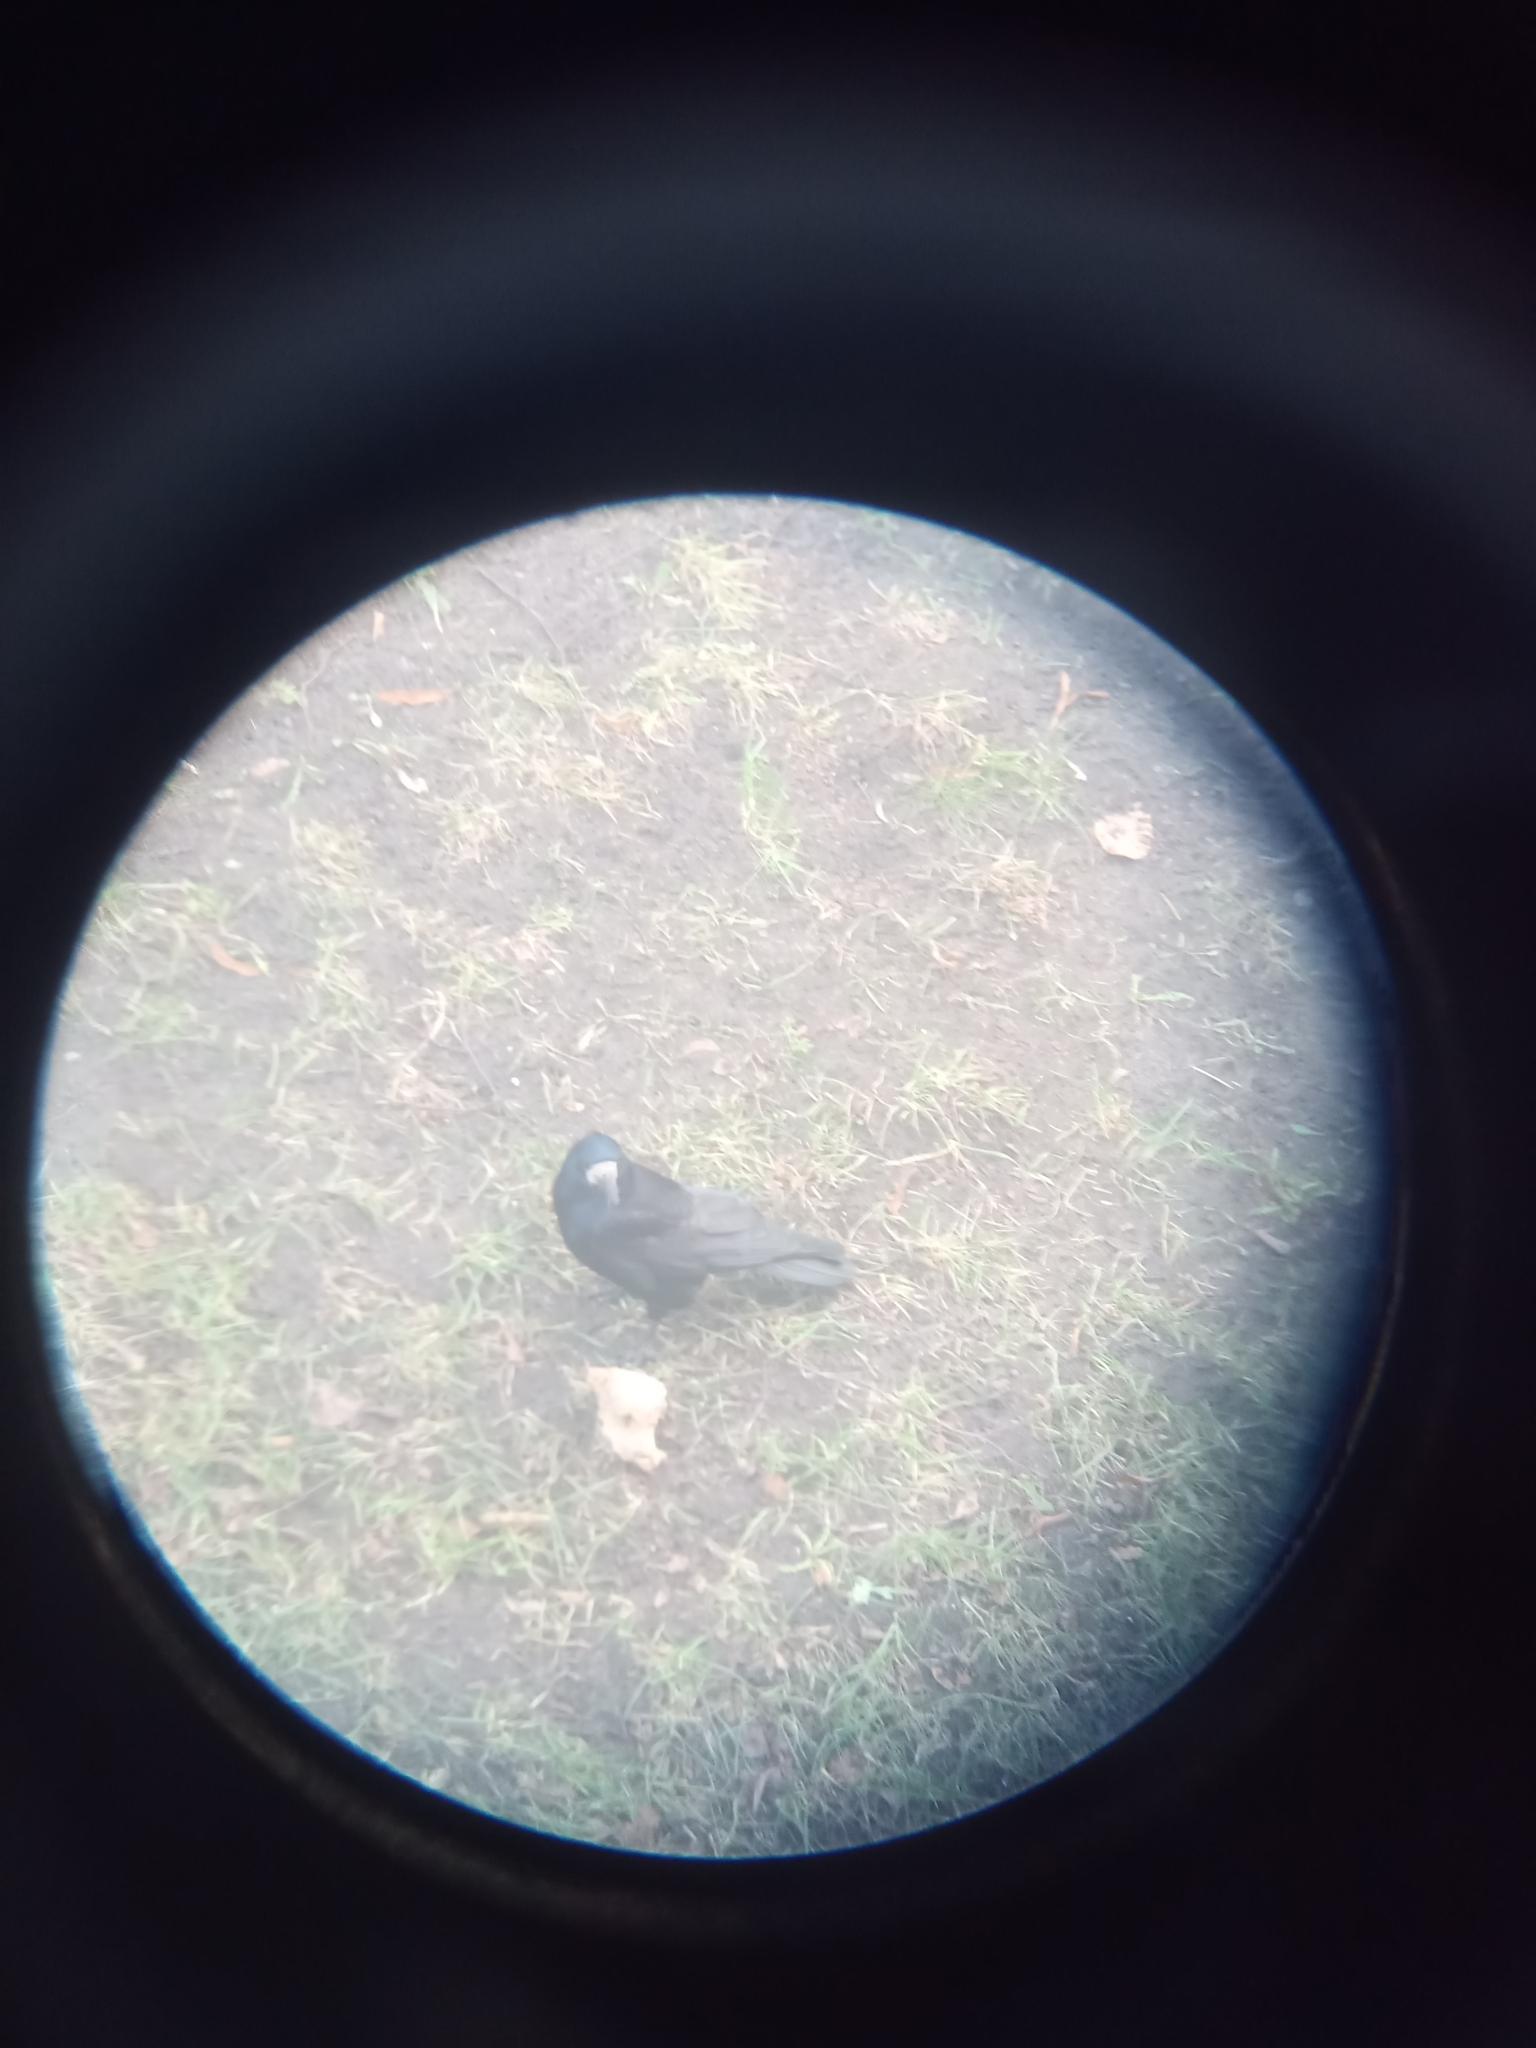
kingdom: Animalia
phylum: Chordata
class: Aves
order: Passeriformes
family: Corvidae
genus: Corvus
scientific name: Corvus frugilegus
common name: Rook
